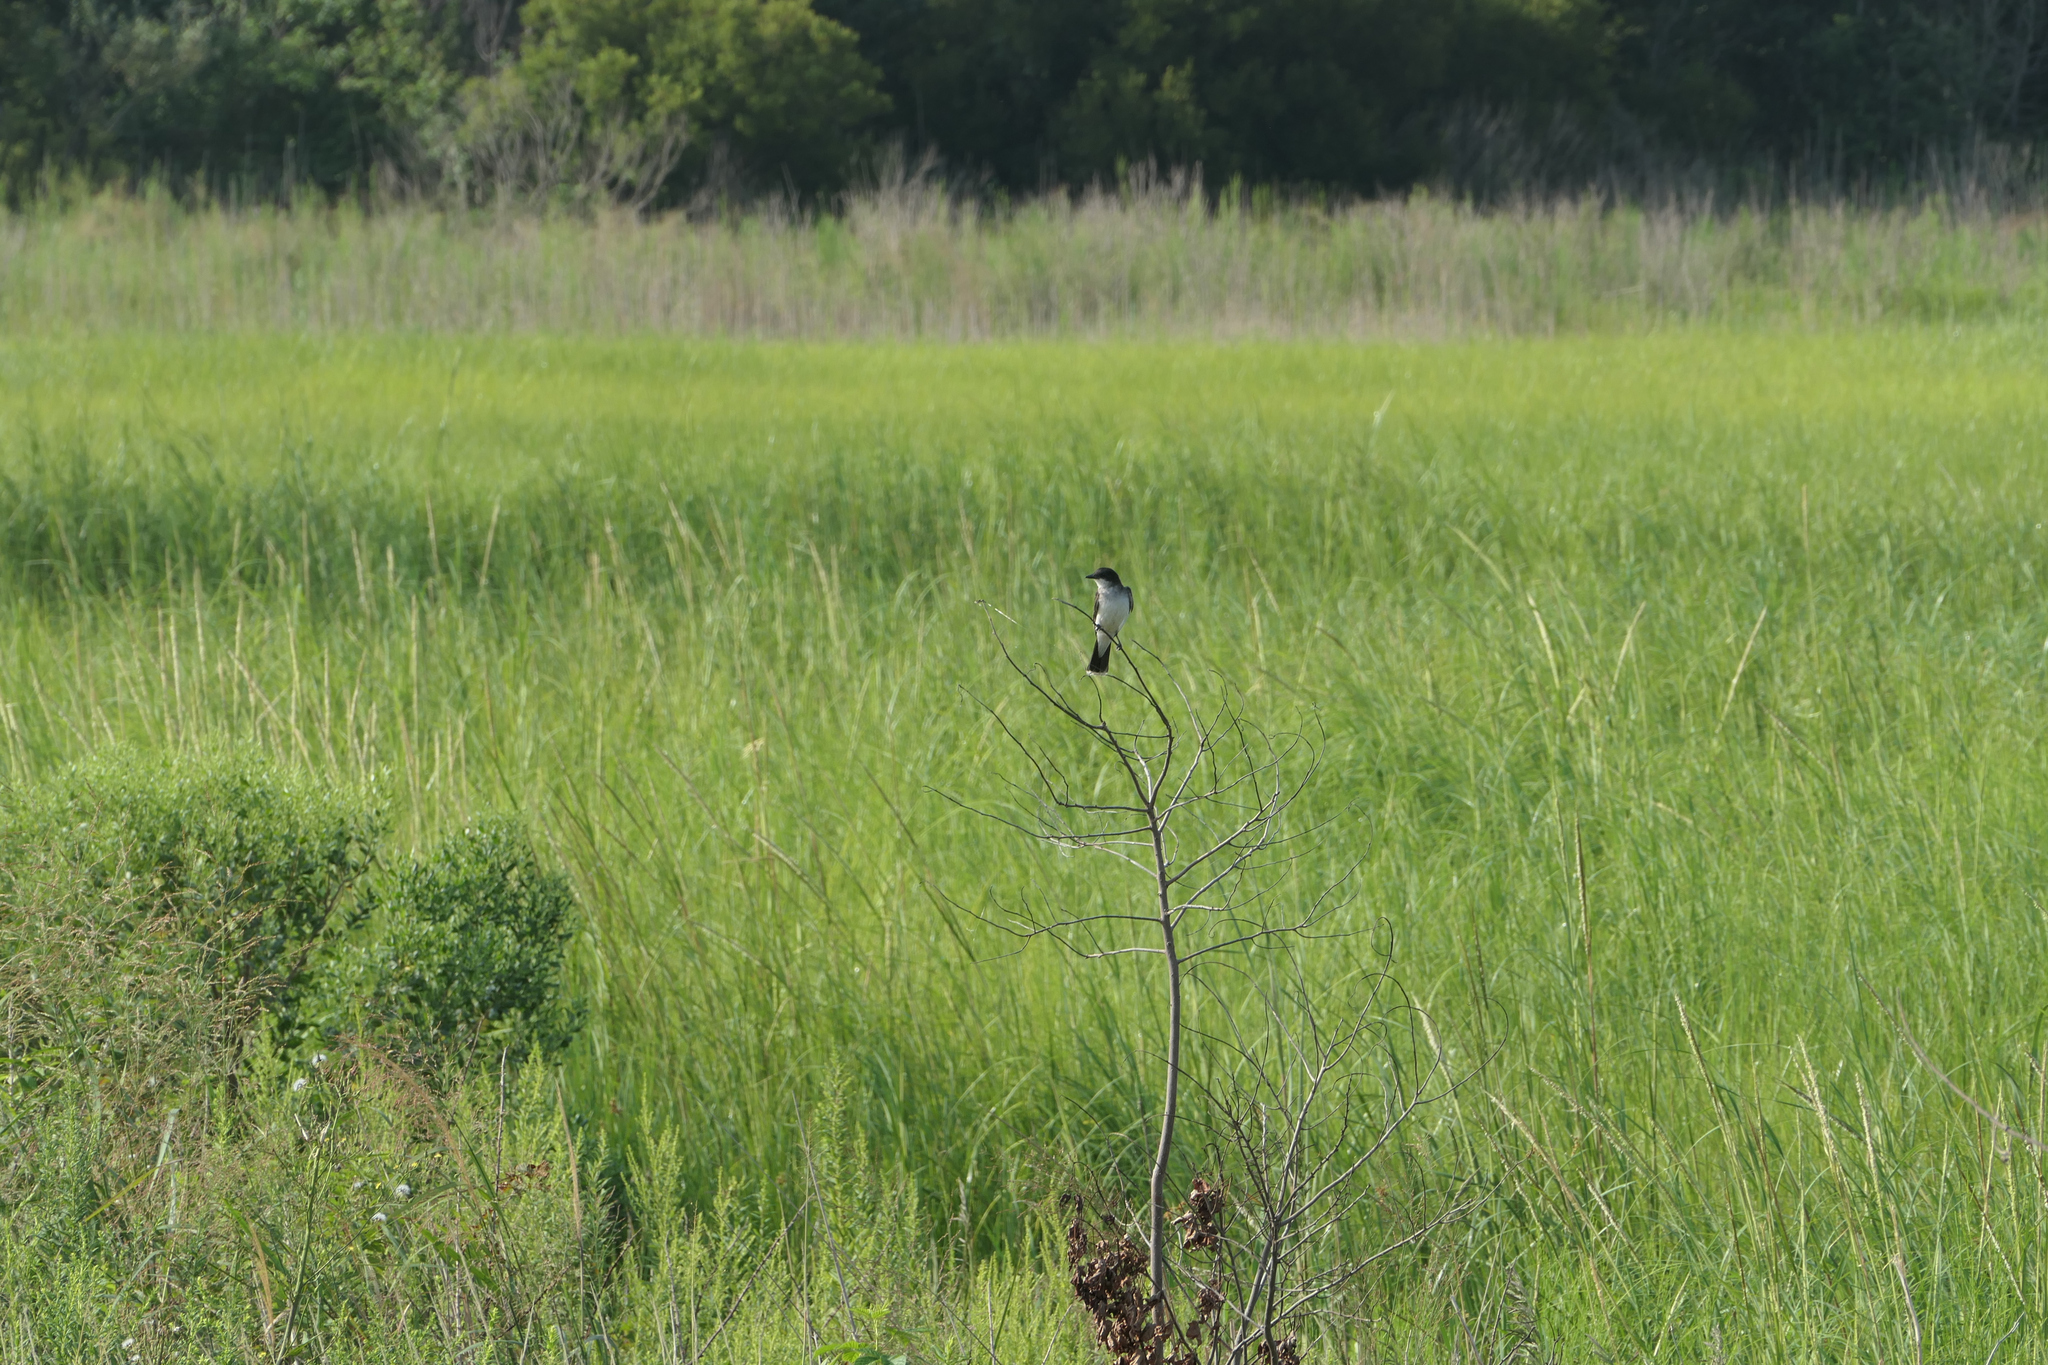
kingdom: Animalia
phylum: Chordata
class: Aves
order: Passeriformes
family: Tyrannidae
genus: Tyrannus
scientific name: Tyrannus tyrannus
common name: Eastern kingbird
